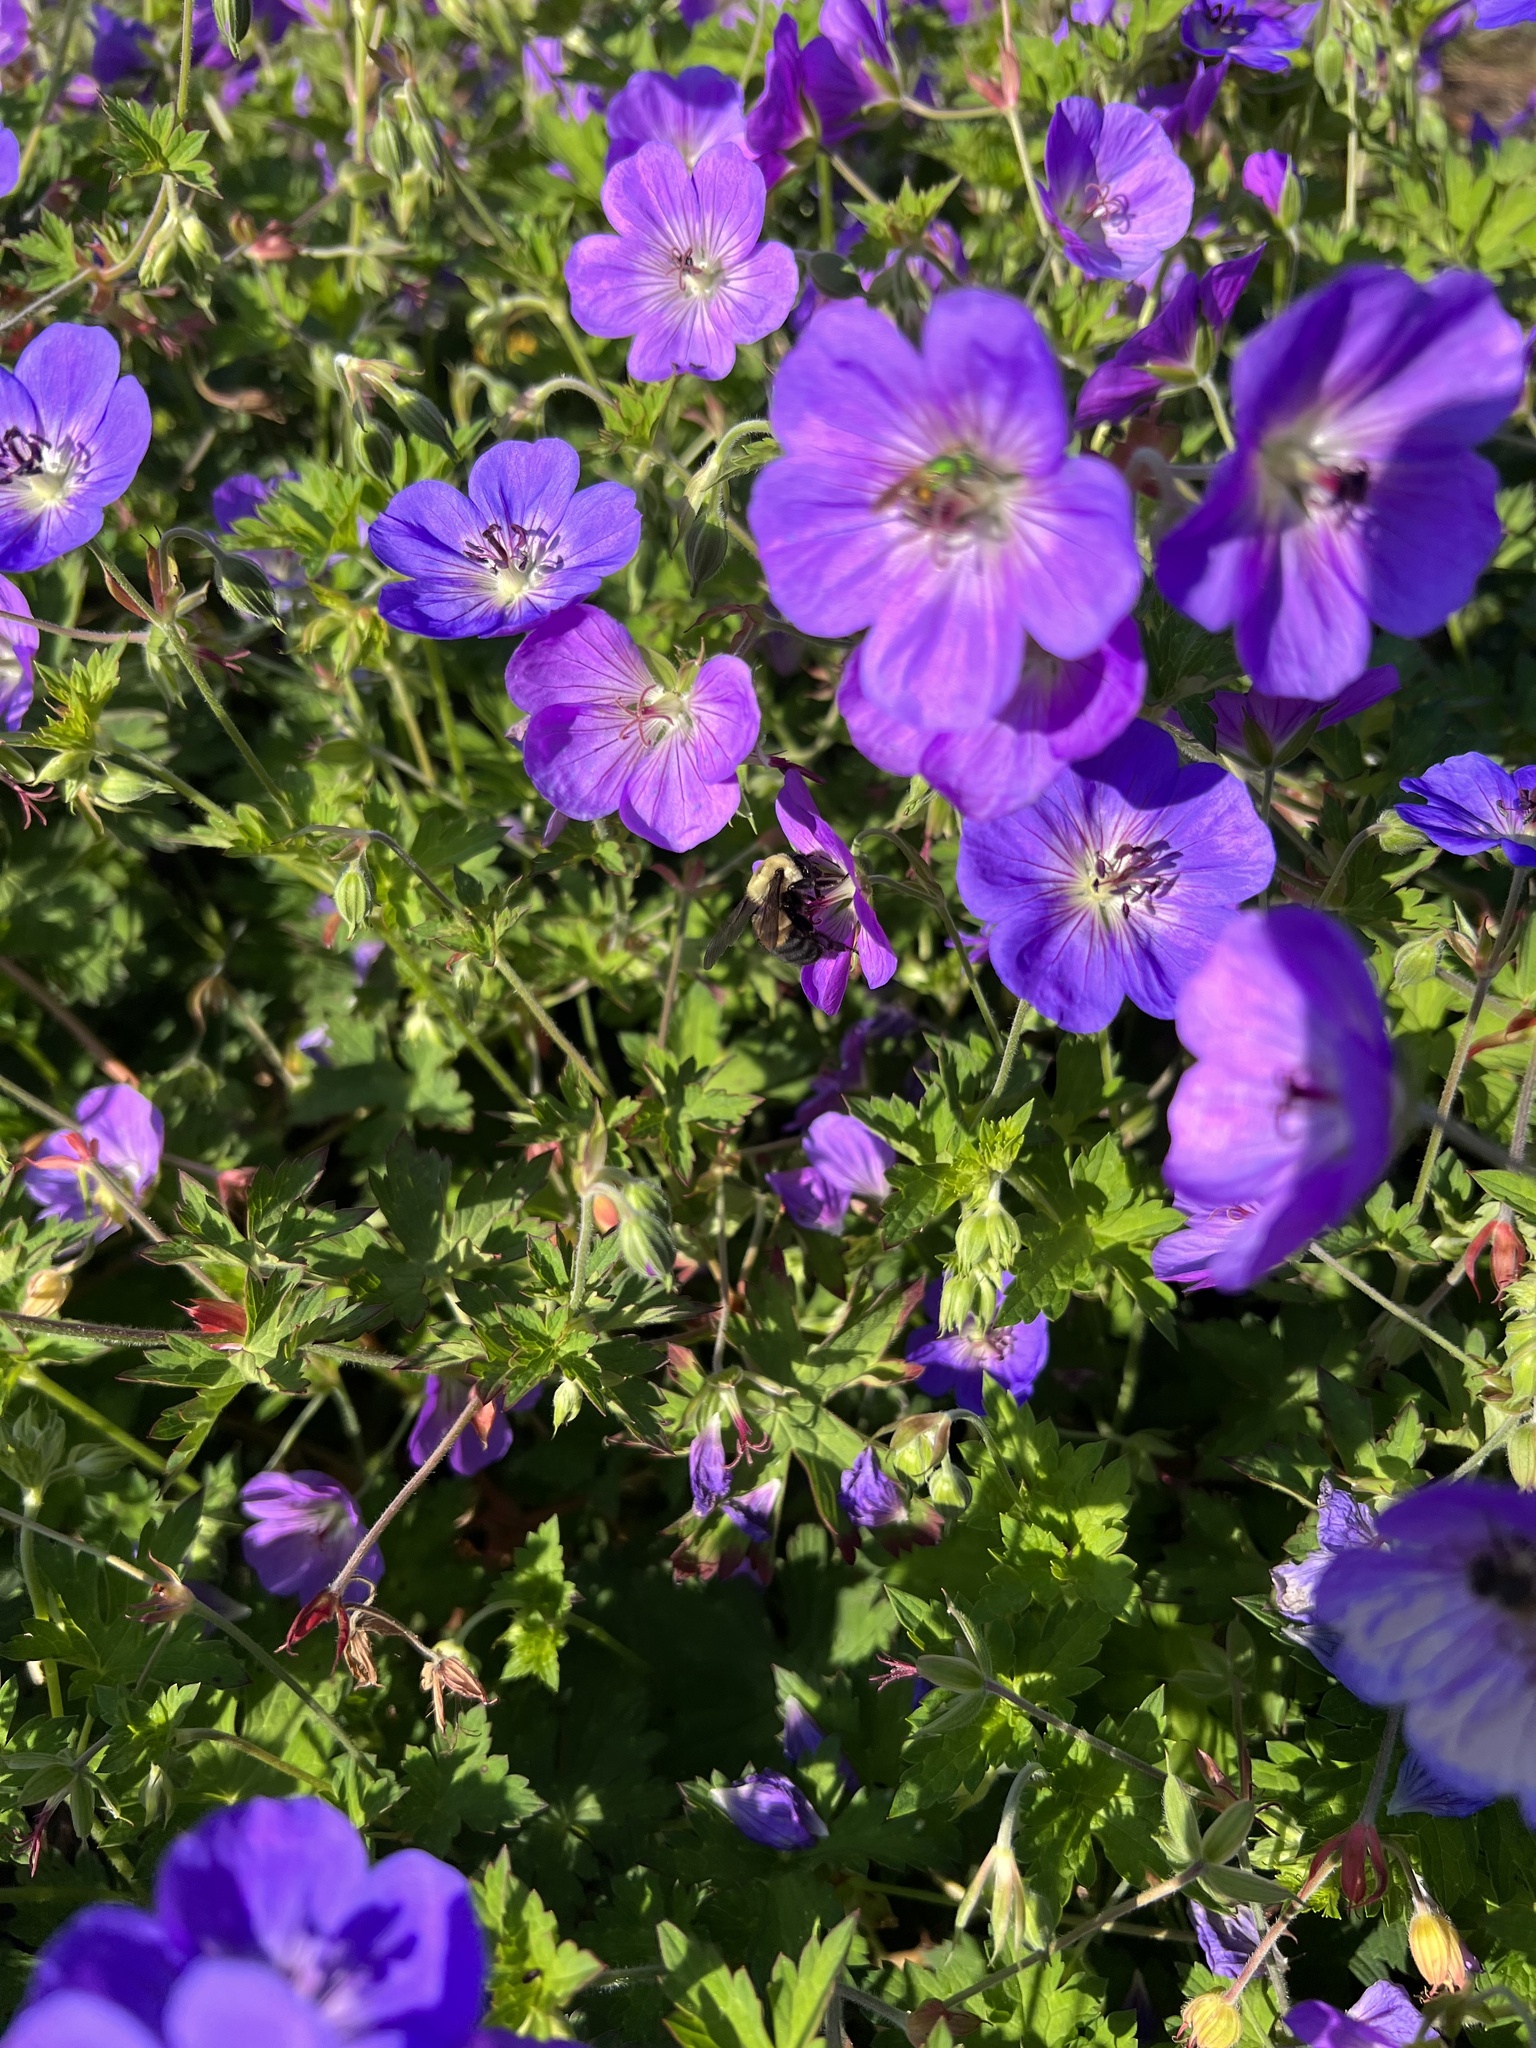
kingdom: Animalia
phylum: Arthropoda
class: Insecta
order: Hymenoptera
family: Apidae
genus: Bombus
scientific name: Bombus griseocollis
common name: Brown-belted bumble bee
